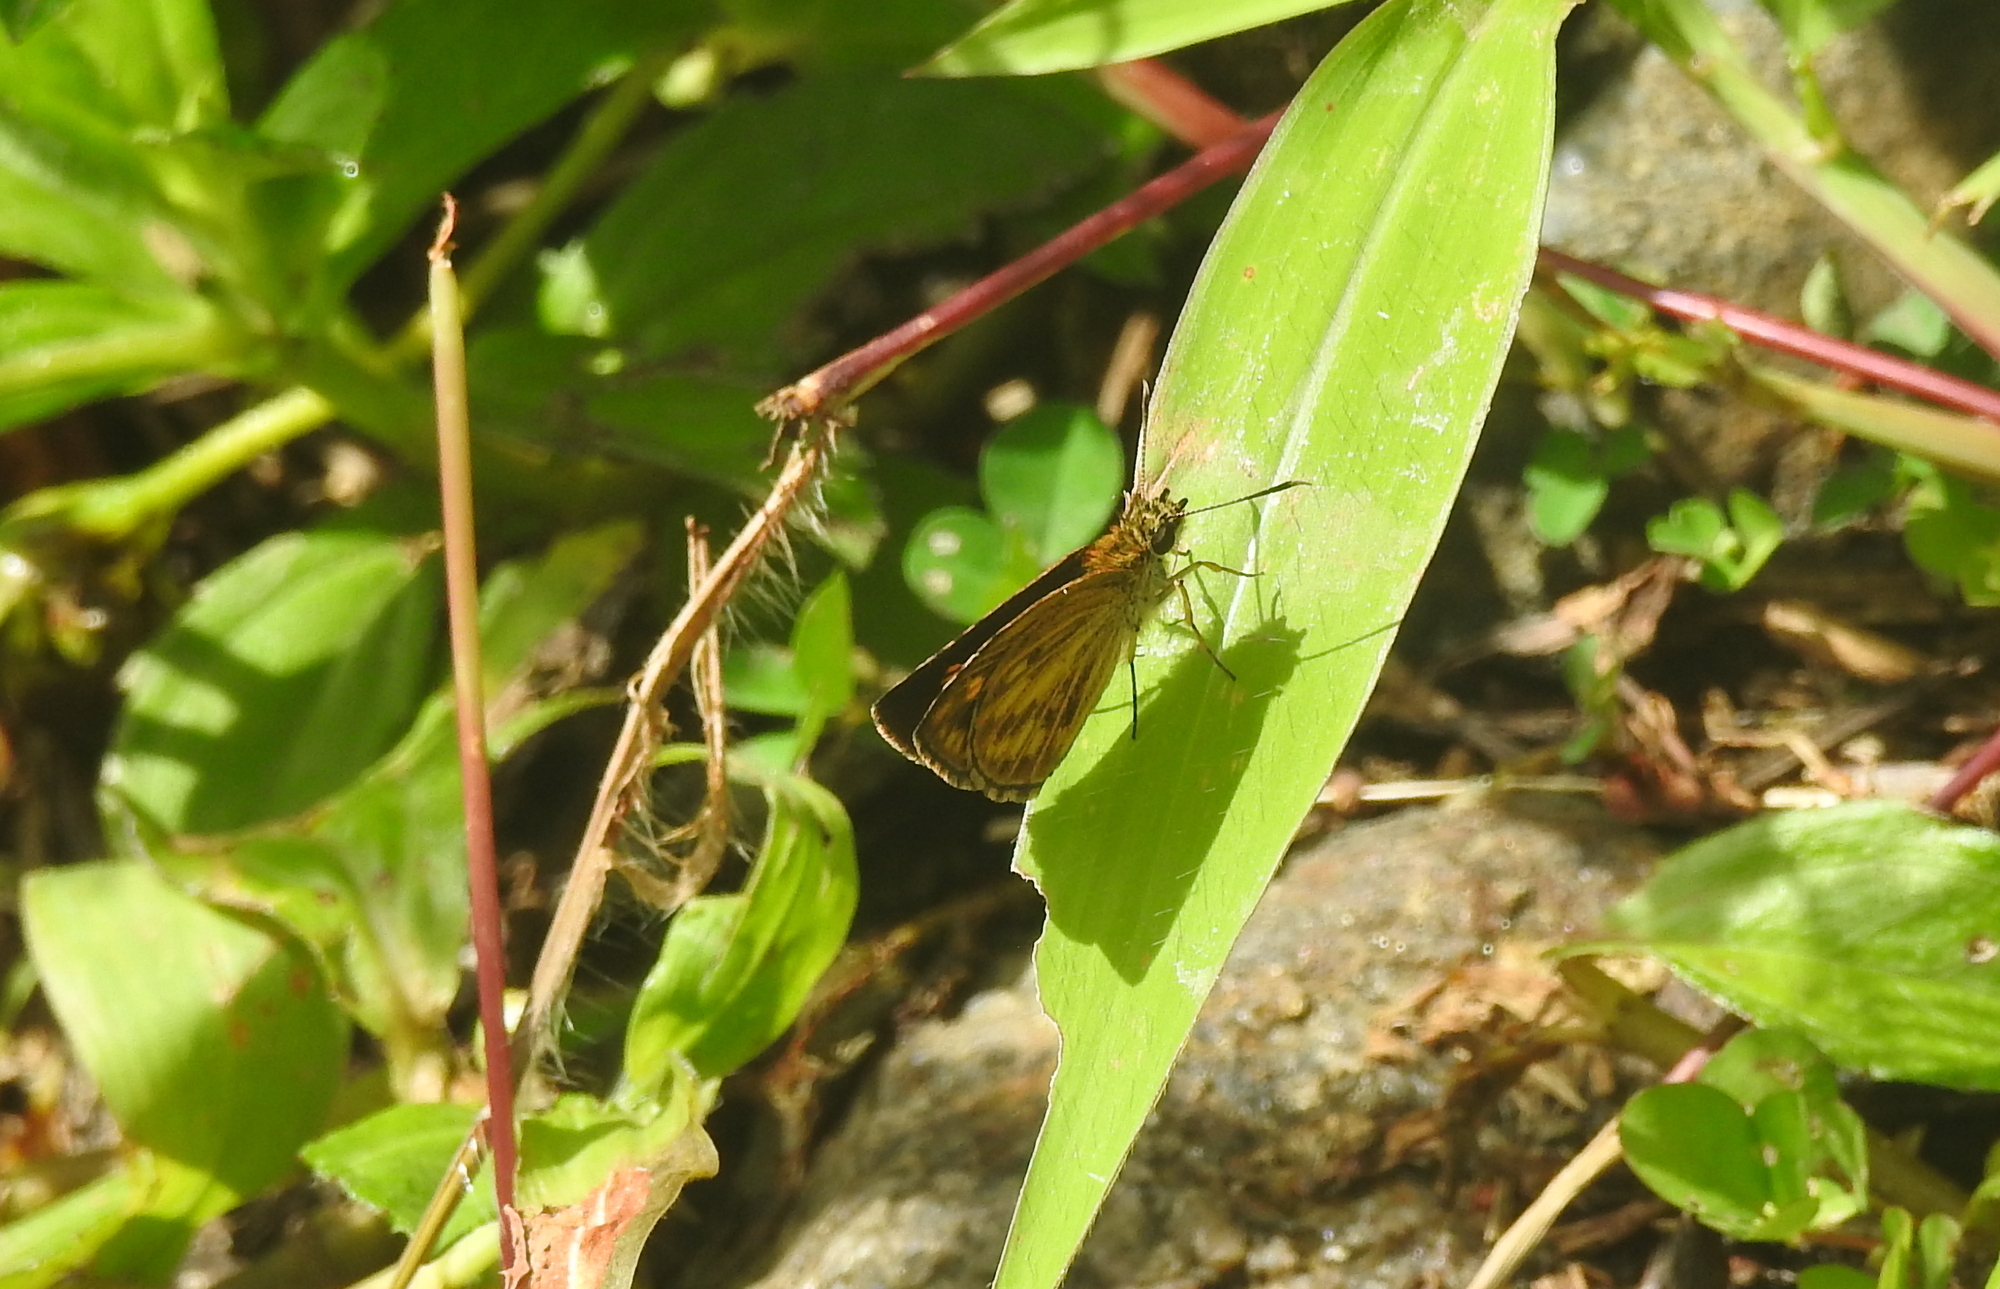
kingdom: Animalia
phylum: Arthropoda
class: Insecta
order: Lepidoptera
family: Hesperiidae
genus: Baracus
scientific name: Baracus vittatus
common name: Hedge-hopper
